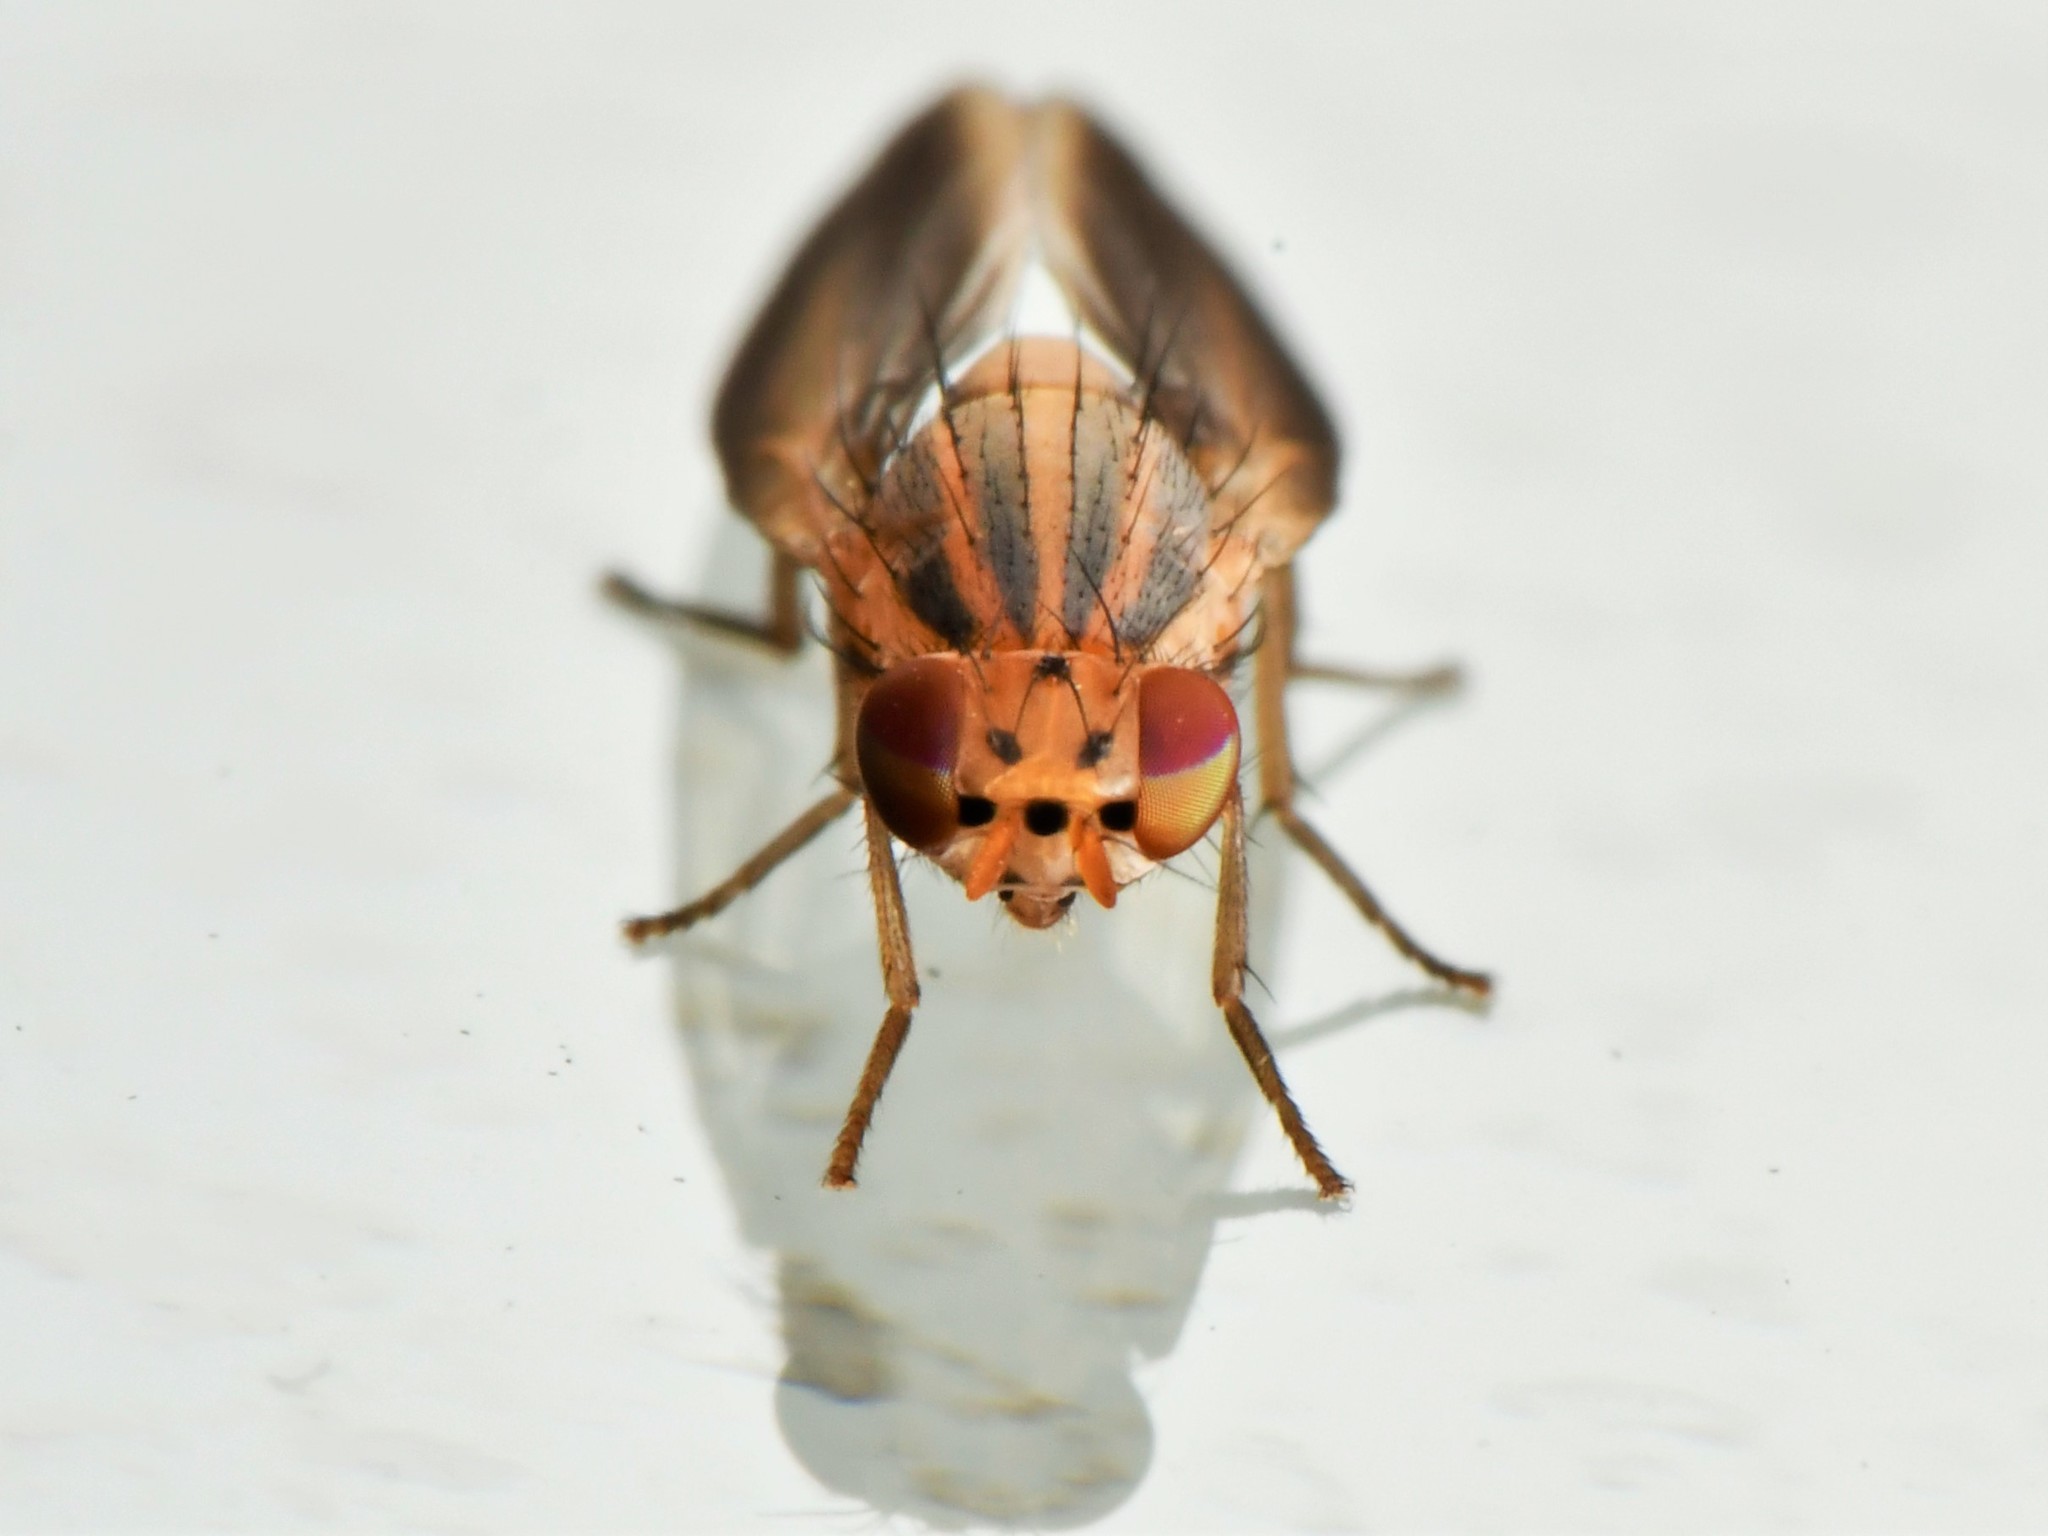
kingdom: Animalia
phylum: Arthropoda
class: Insecta
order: Diptera
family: Lauxaniidae
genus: Peplomyza
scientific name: Peplomyza litura
